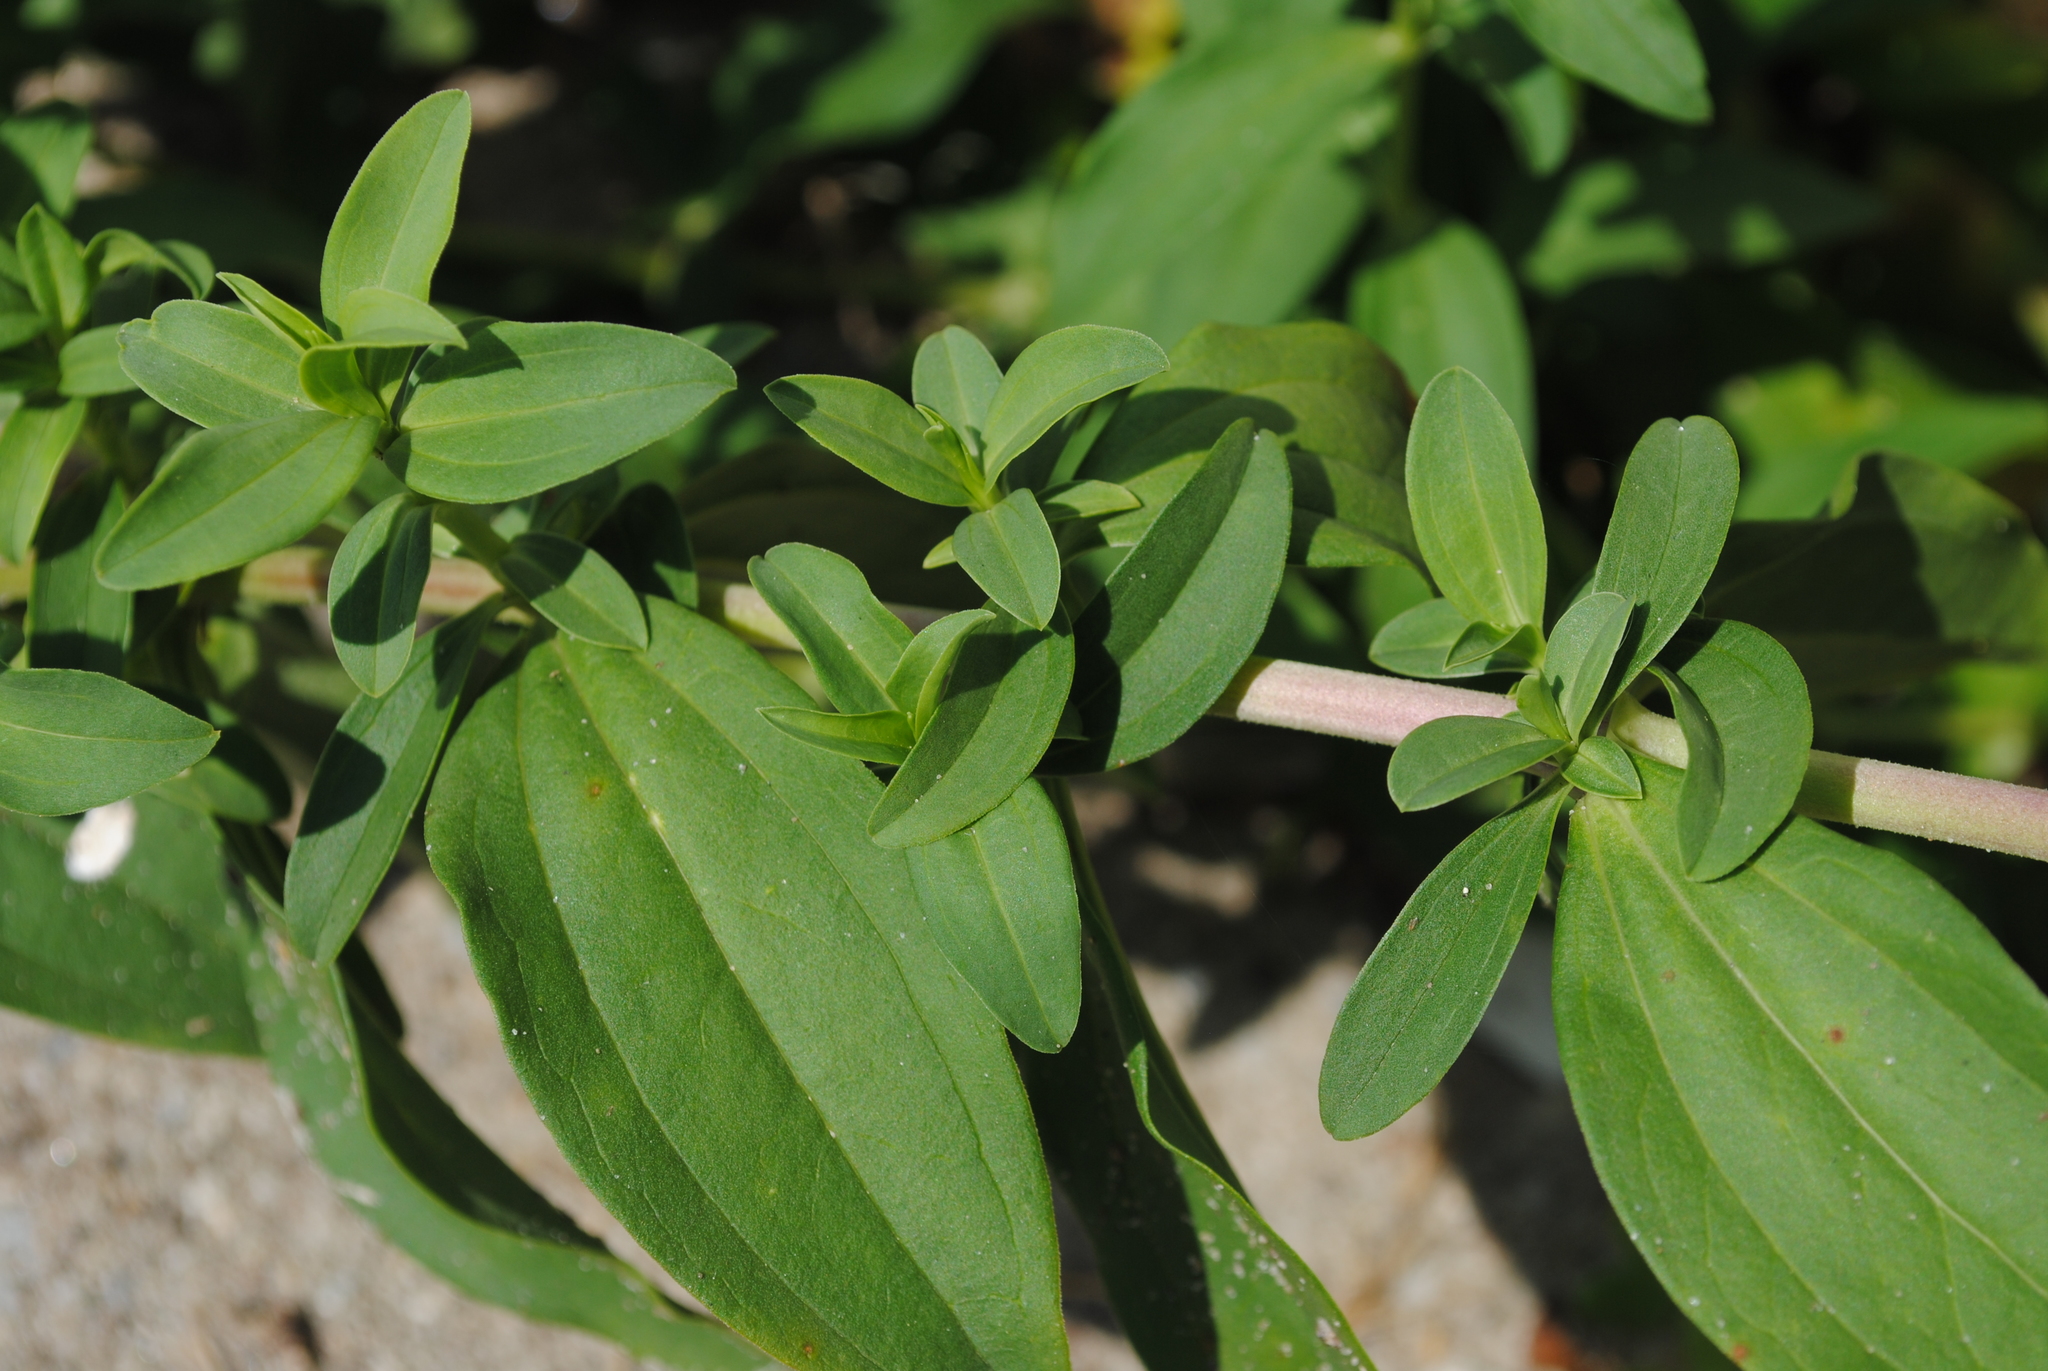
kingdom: Plantae
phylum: Tracheophyta
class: Magnoliopsida
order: Caryophyllales
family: Caryophyllaceae
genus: Saponaria
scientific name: Saponaria officinalis
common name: Soapwort
